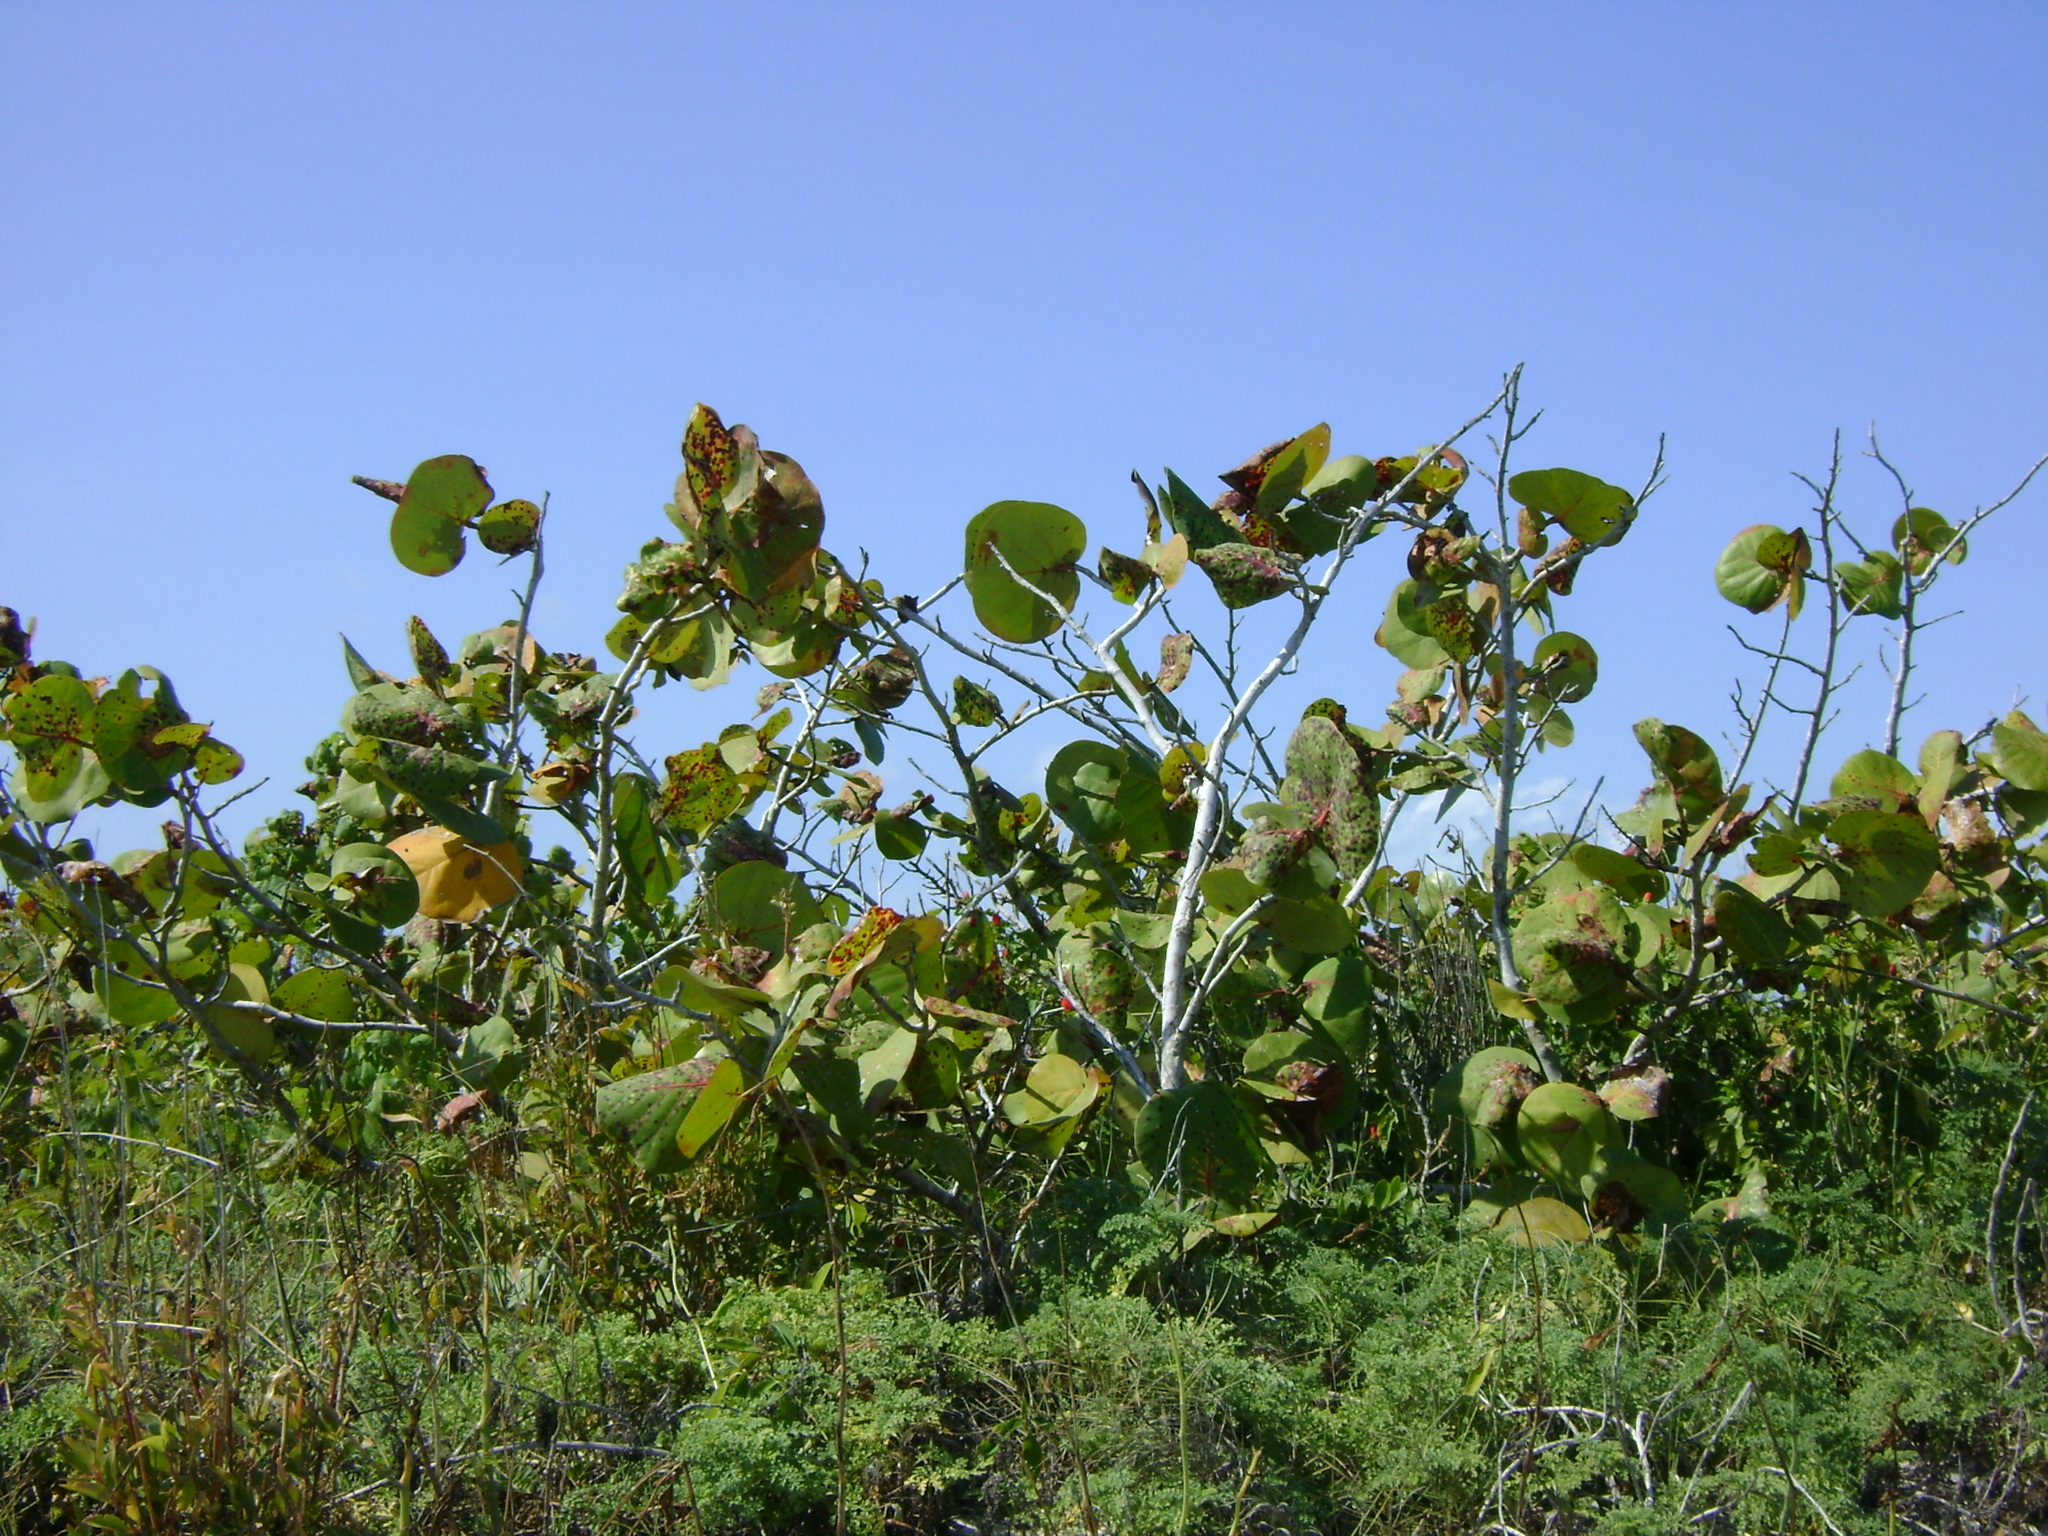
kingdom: Plantae
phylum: Tracheophyta
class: Magnoliopsida
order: Caryophyllales
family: Polygonaceae
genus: Coccoloba
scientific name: Coccoloba uvifera
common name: Seagrape
